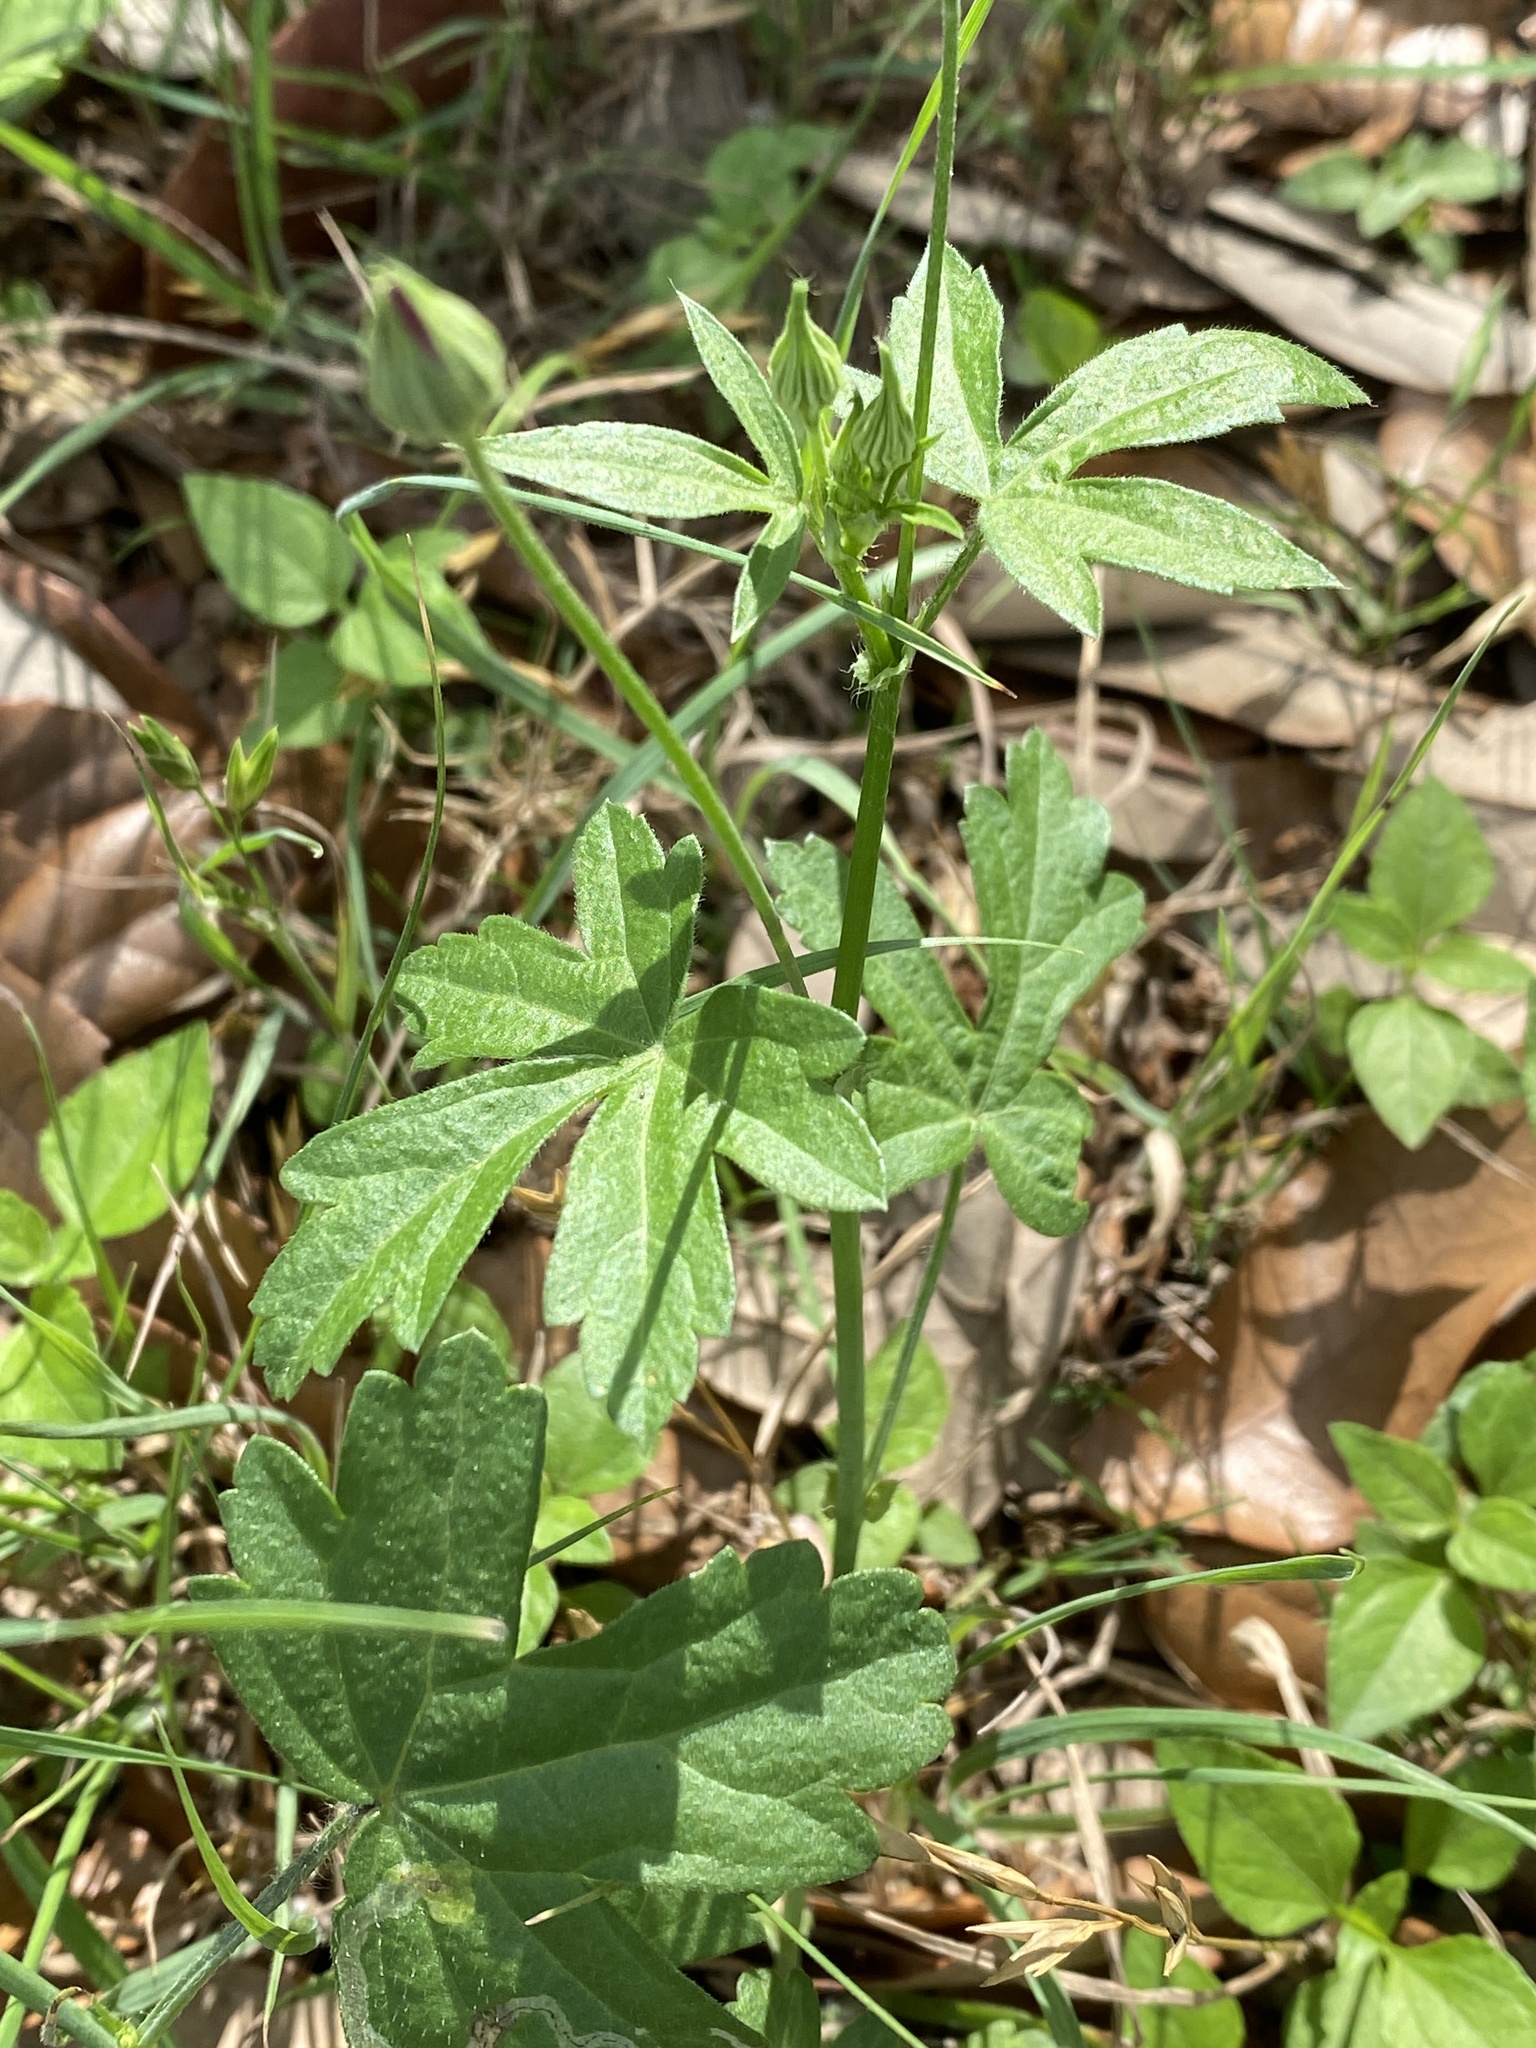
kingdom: Plantae
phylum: Tracheophyta
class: Magnoliopsida
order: Malvales
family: Malvaceae
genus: Callirhoe
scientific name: Callirhoe leiocarpa
